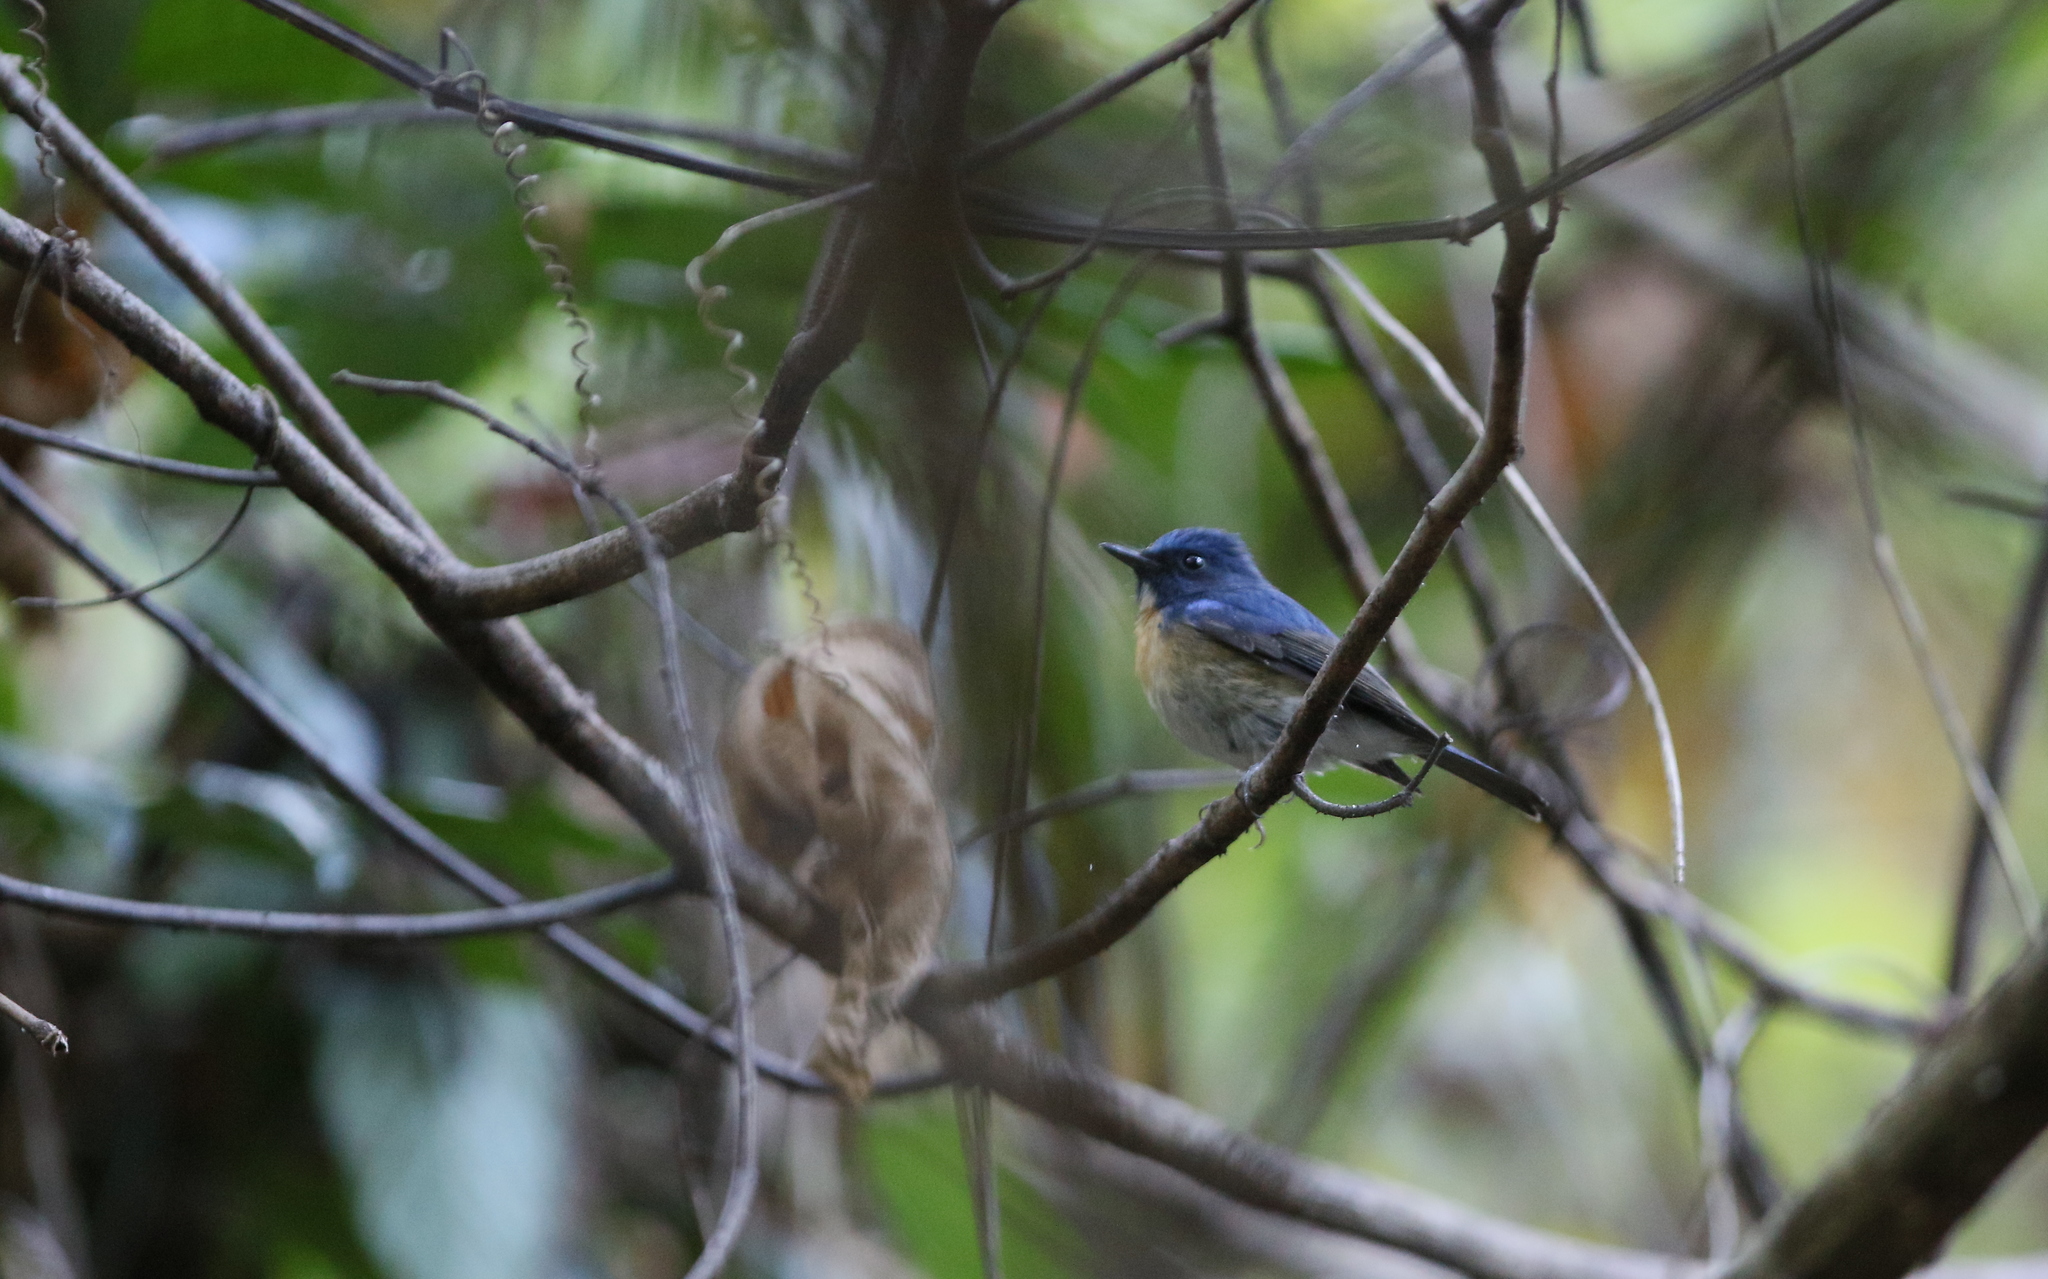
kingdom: Animalia
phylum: Chordata
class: Aves
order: Passeriformes
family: Muscicapidae
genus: Cyornis
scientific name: Cyornis hainanus
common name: Hainan blue flycatcher
